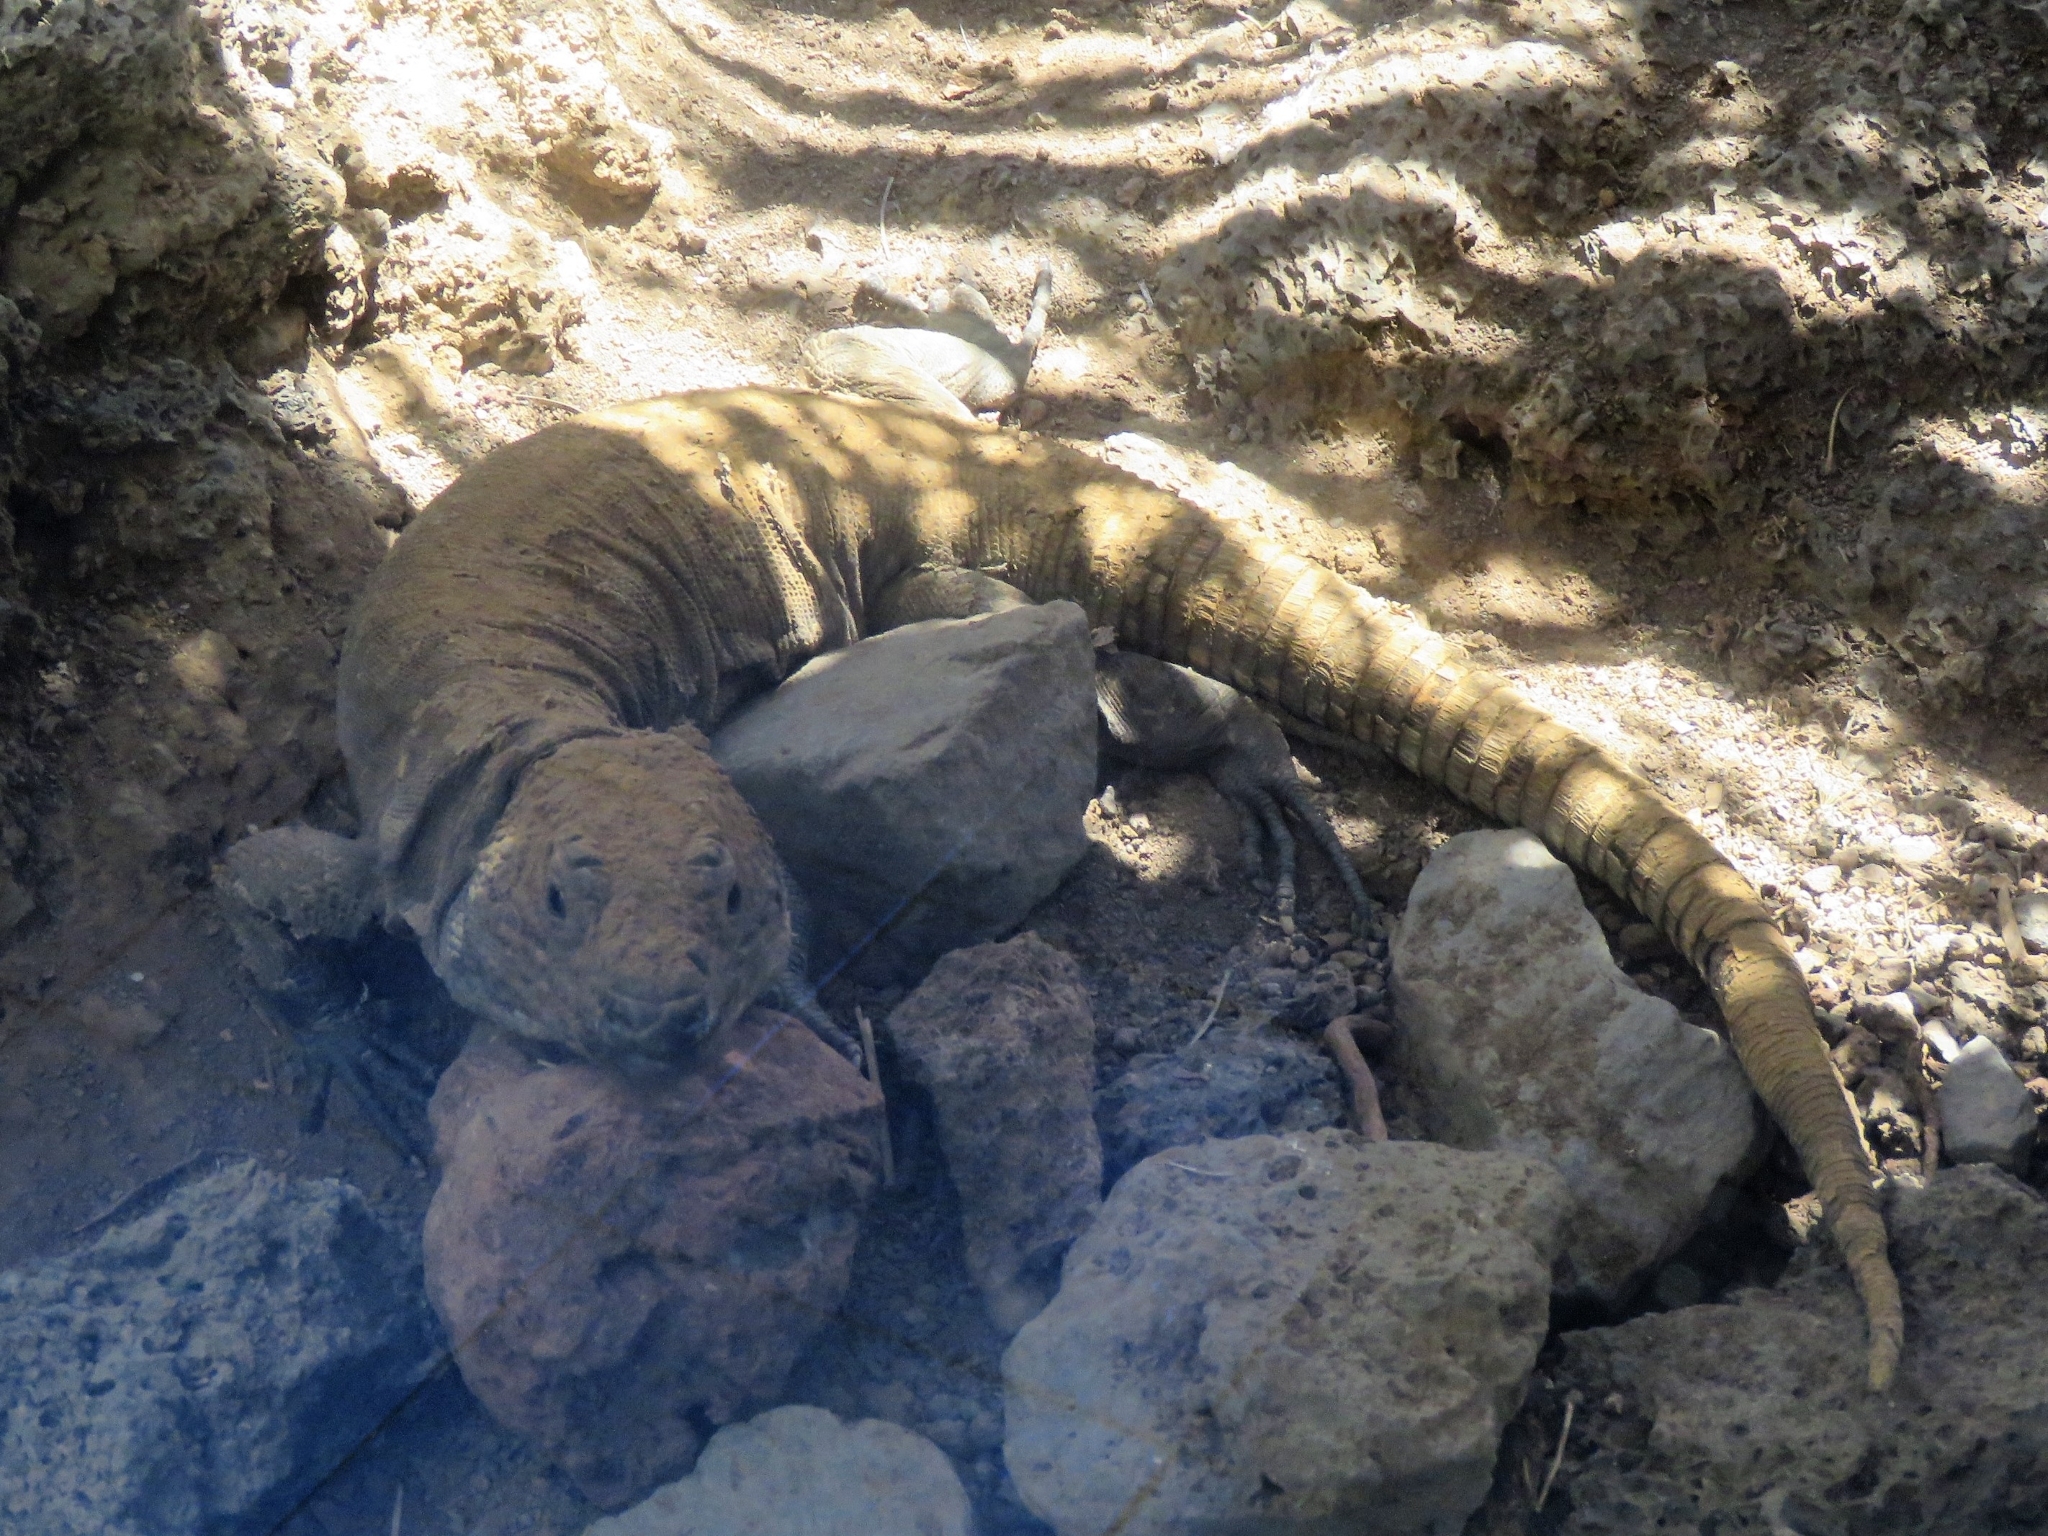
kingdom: Animalia
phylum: Chordata
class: Squamata
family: Lacertidae
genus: Gallotia
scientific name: Gallotia simonyi
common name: El hierro giant lizard
